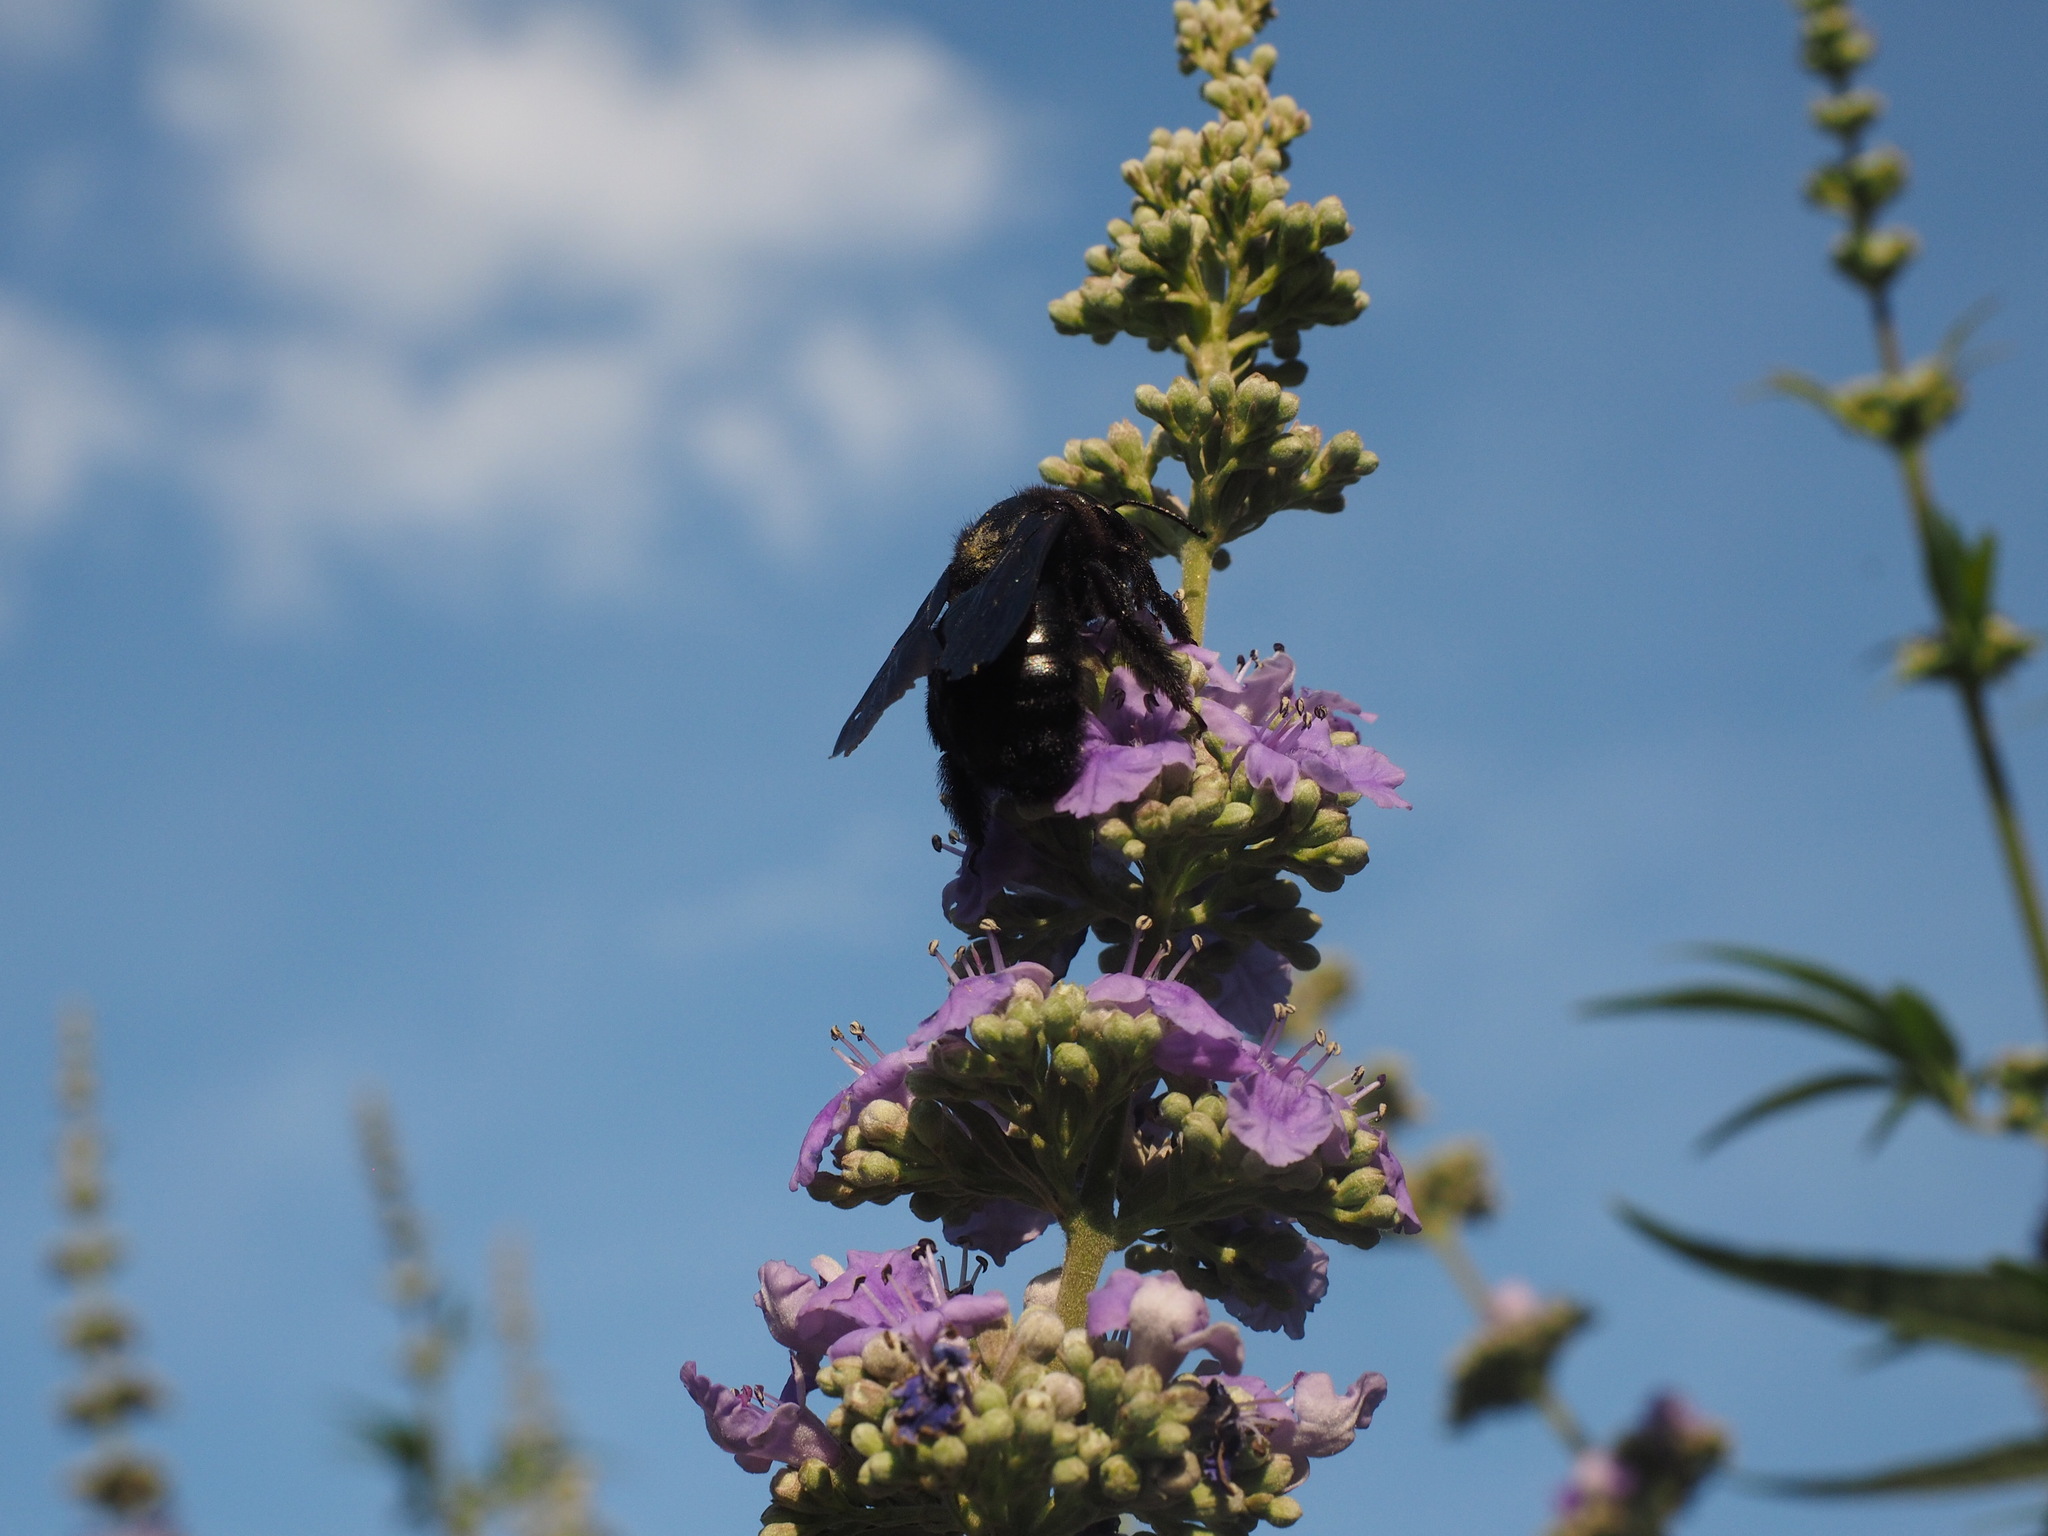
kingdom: Animalia
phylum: Arthropoda
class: Insecta
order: Hymenoptera
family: Apidae
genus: Xylocopa
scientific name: Xylocopa violacea
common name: Violet carpenter bee
